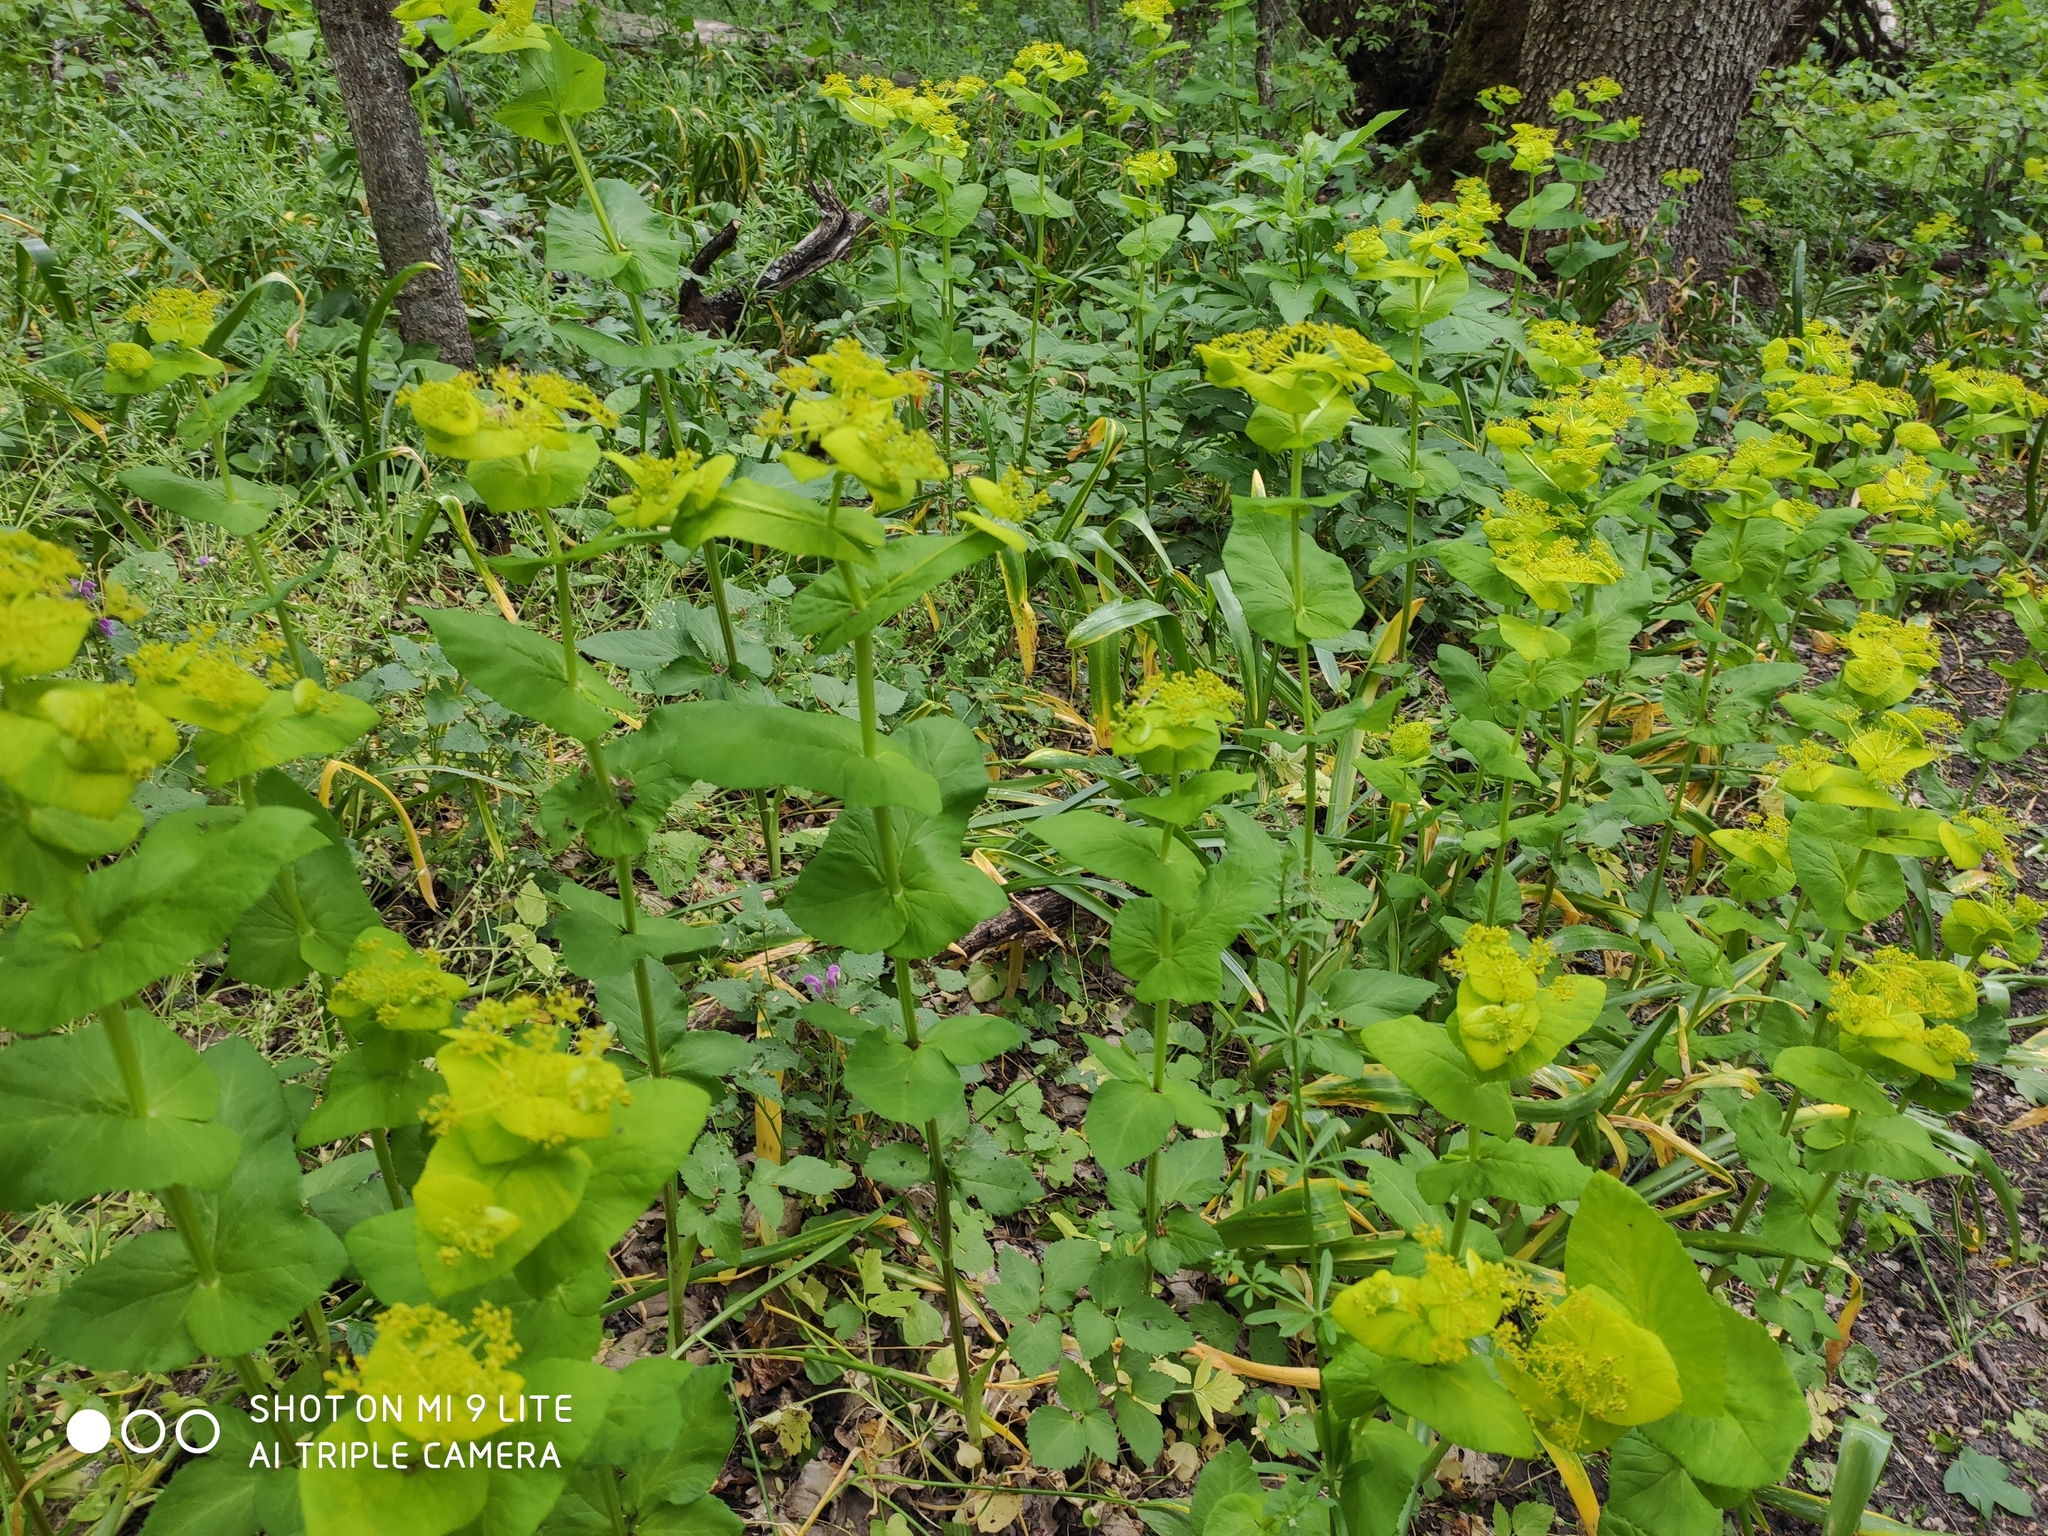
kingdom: Plantae
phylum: Tracheophyta
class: Magnoliopsida
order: Apiales
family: Apiaceae
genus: Smyrnium
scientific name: Smyrnium perfoliatum
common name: Perfoliate alexanders
